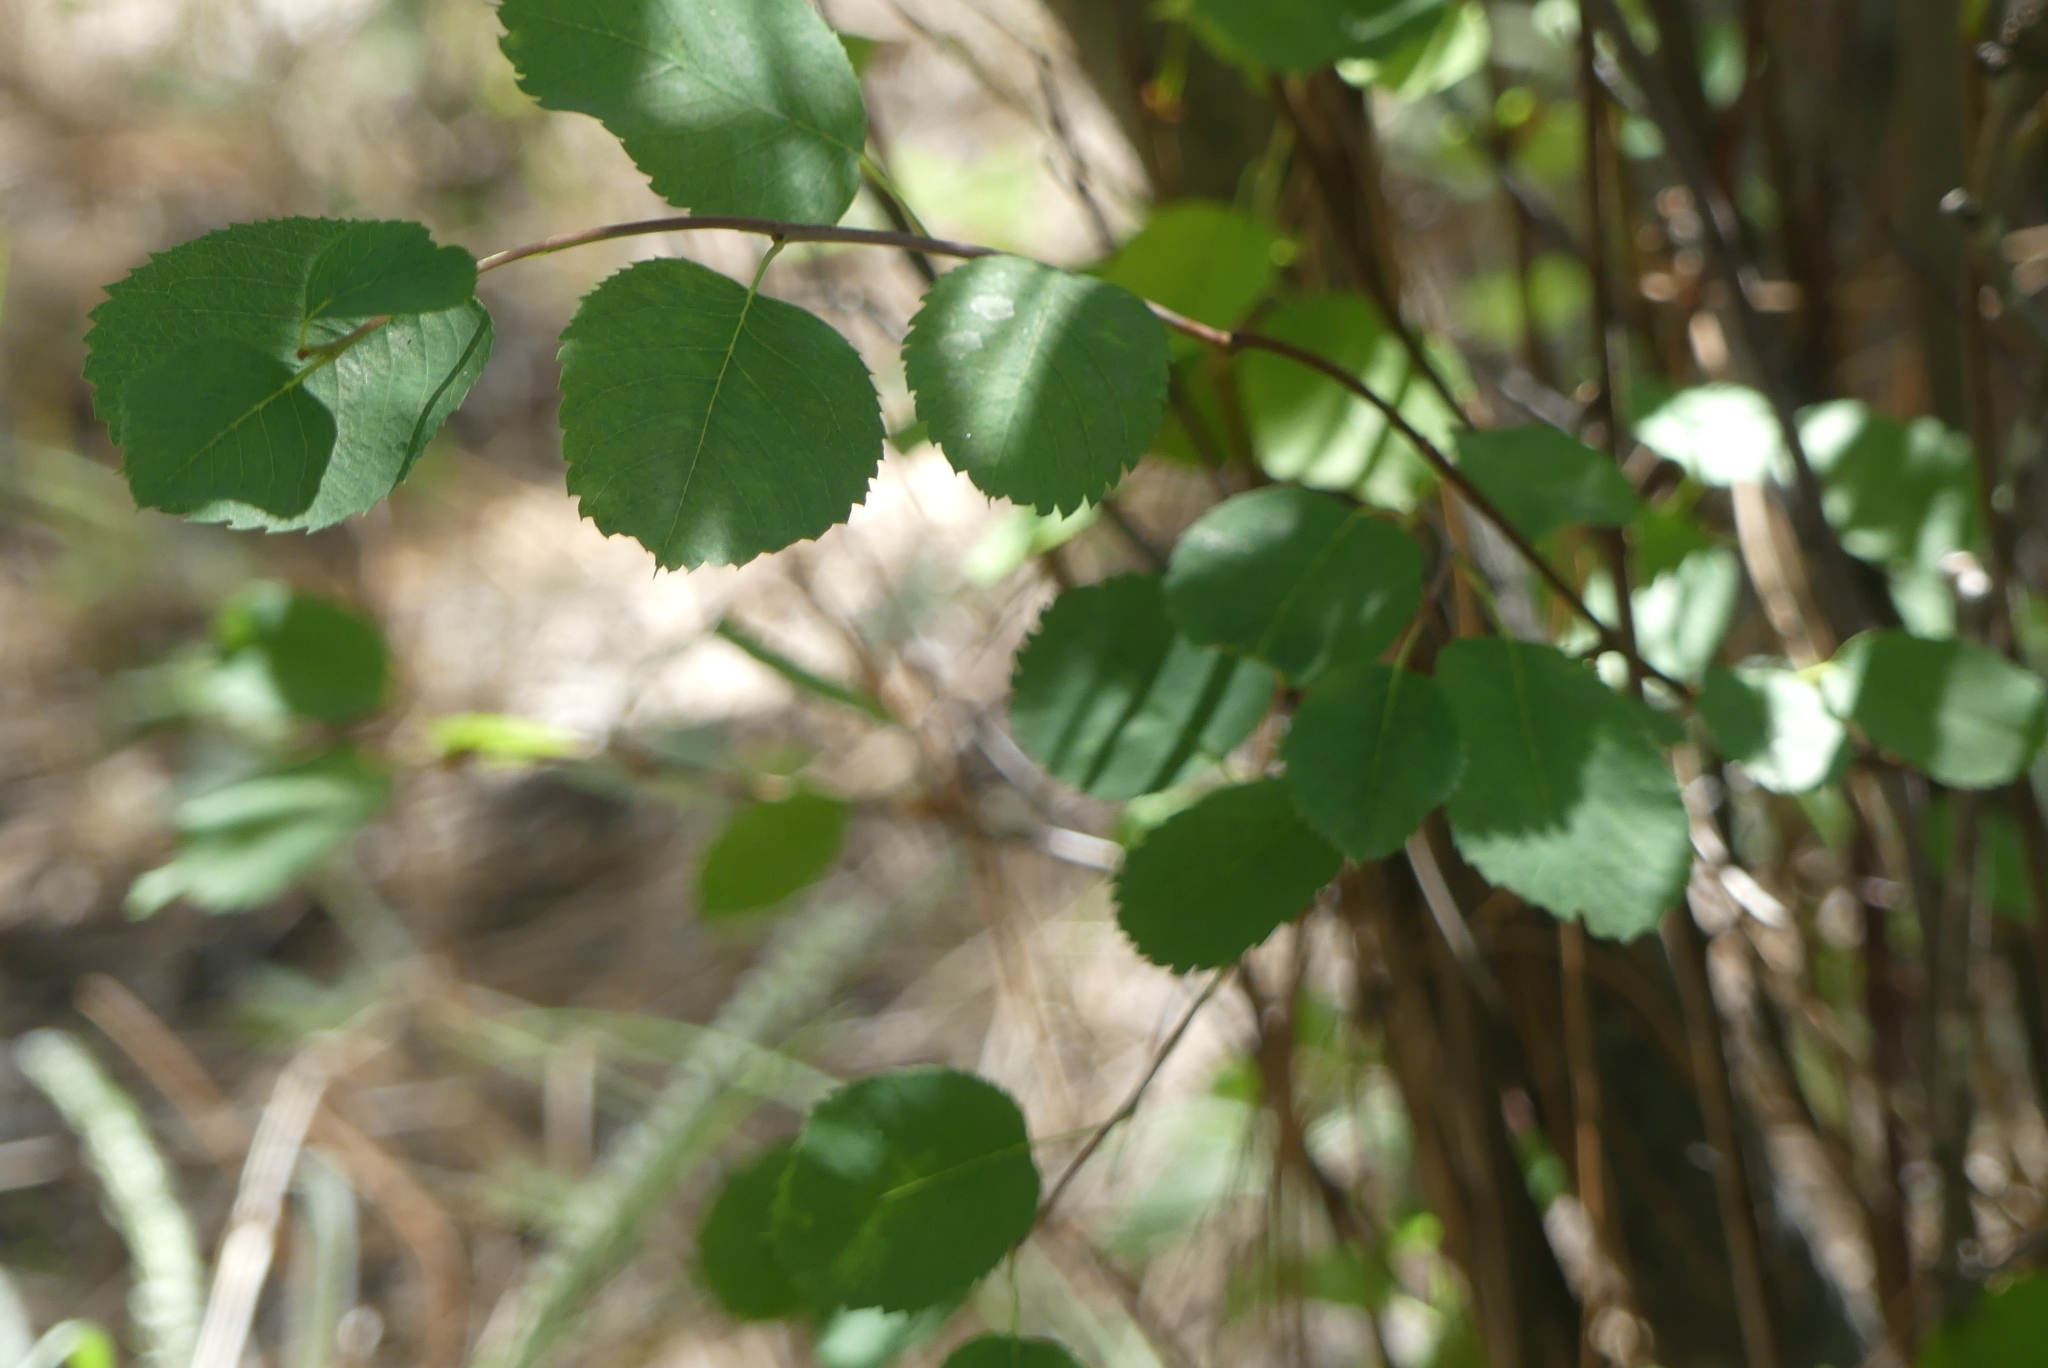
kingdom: Plantae
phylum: Tracheophyta
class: Magnoliopsida
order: Rosales
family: Rosaceae
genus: Amelanchier
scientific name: Amelanchier alnifolia
